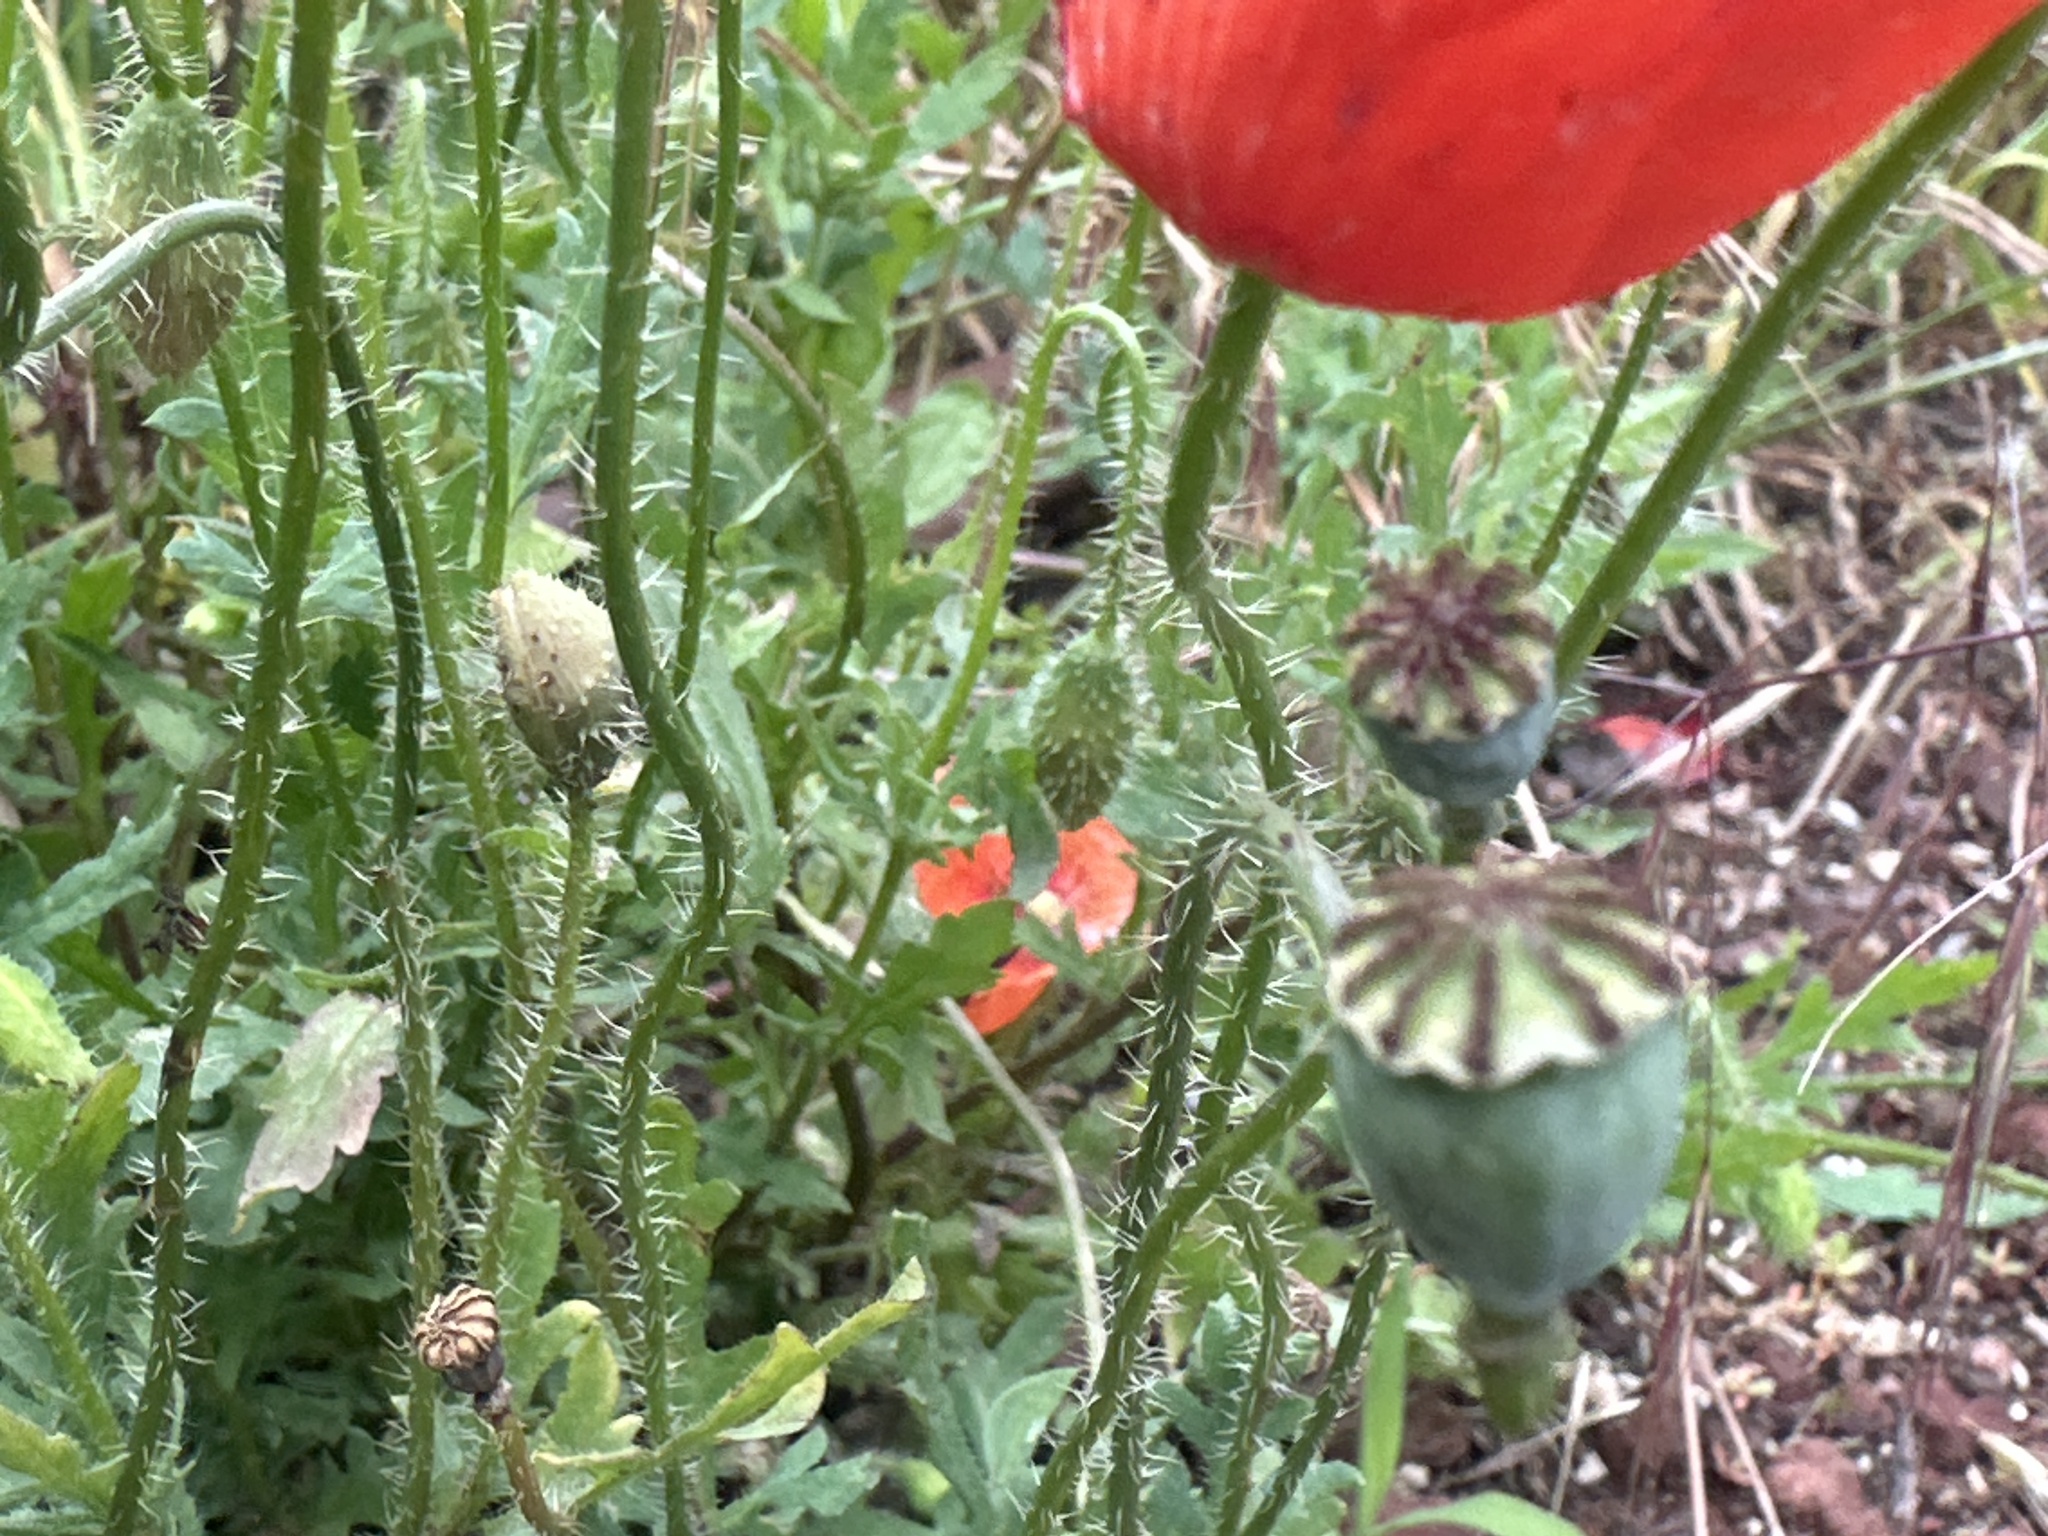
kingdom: Plantae
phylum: Tracheophyta
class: Magnoliopsida
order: Ranunculales
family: Papaveraceae
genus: Papaver
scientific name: Papaver rhoeas
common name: Corn poppy
